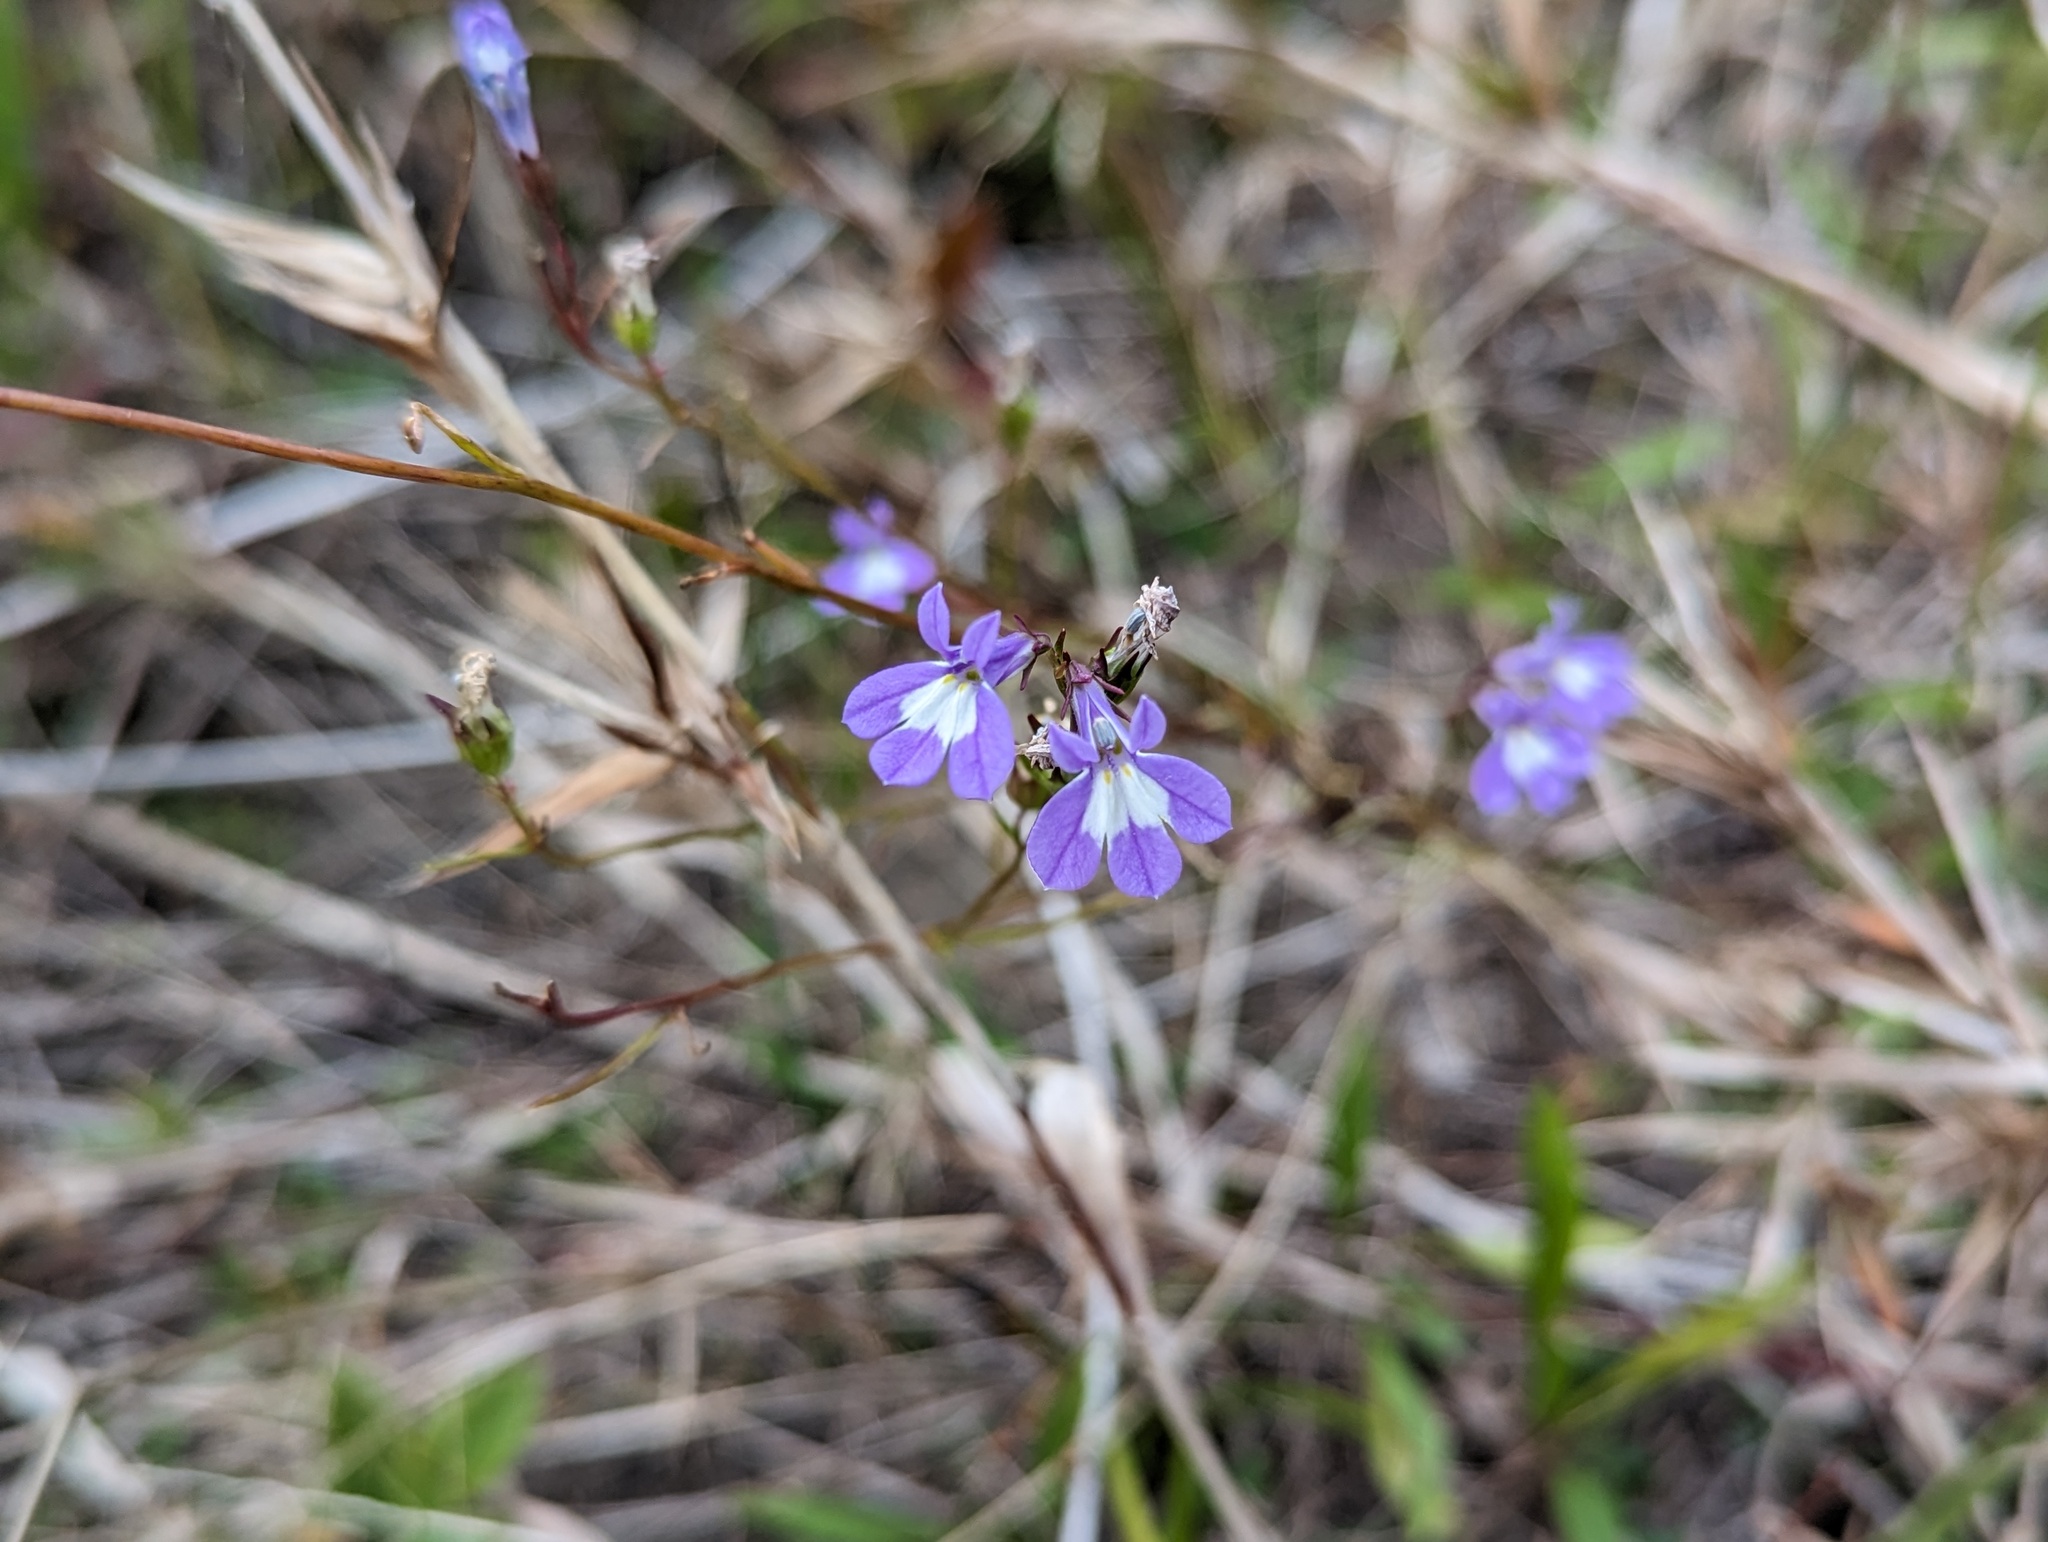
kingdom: Plantae
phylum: Tracheophyta
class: Magnoliopsida
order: Asterales
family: Campanulaceae
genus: Lobelia
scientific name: Lobelia kalmii
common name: Kalm's lobelia
